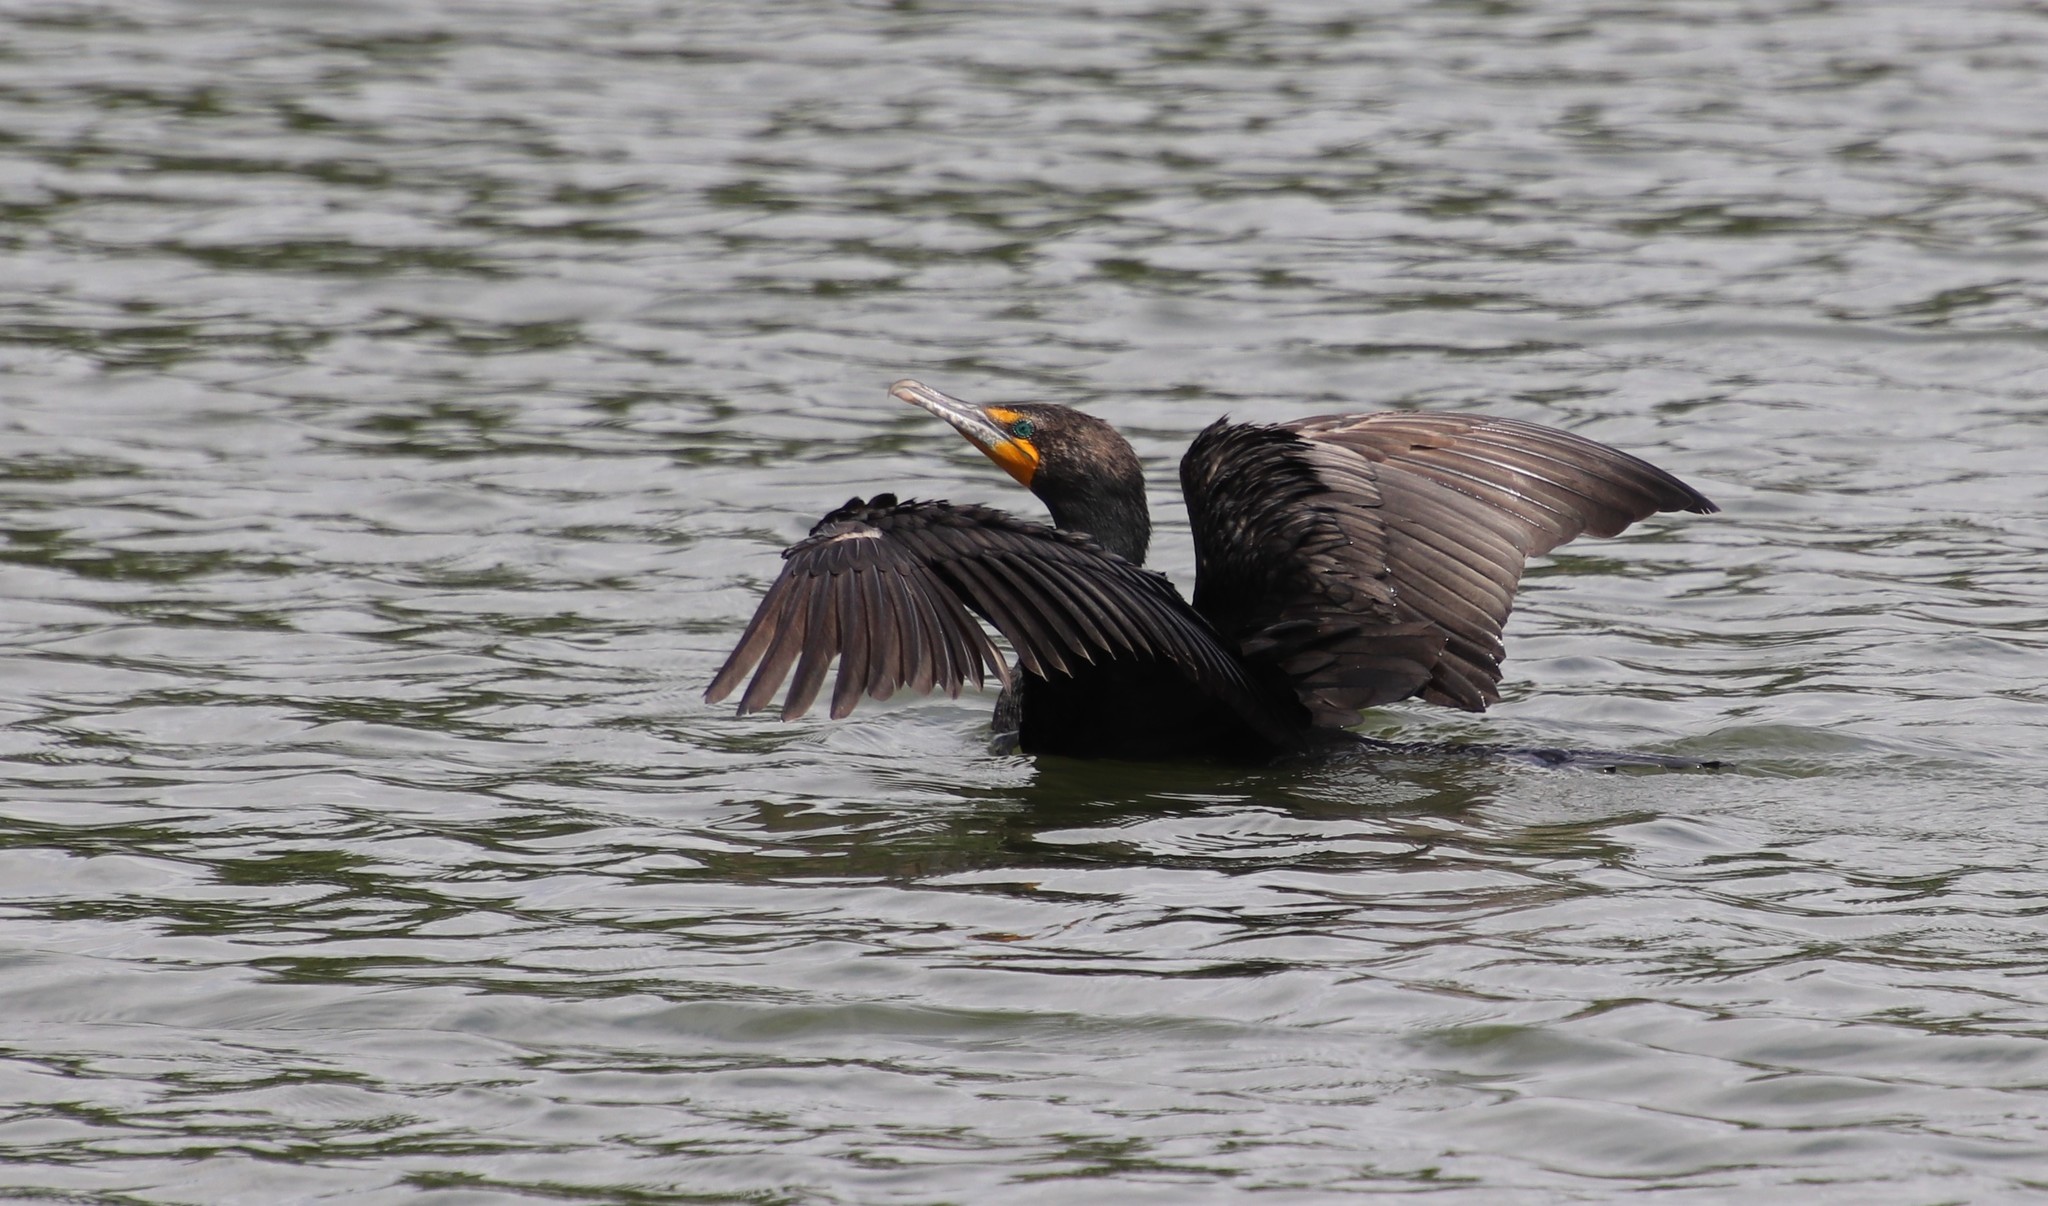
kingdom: Animalia
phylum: Chordata
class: Aves
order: Suliformes
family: Phalacrocoracidae
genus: Phalacrocorax
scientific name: Phalacrocorax auritus
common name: Double-crested cormorant
